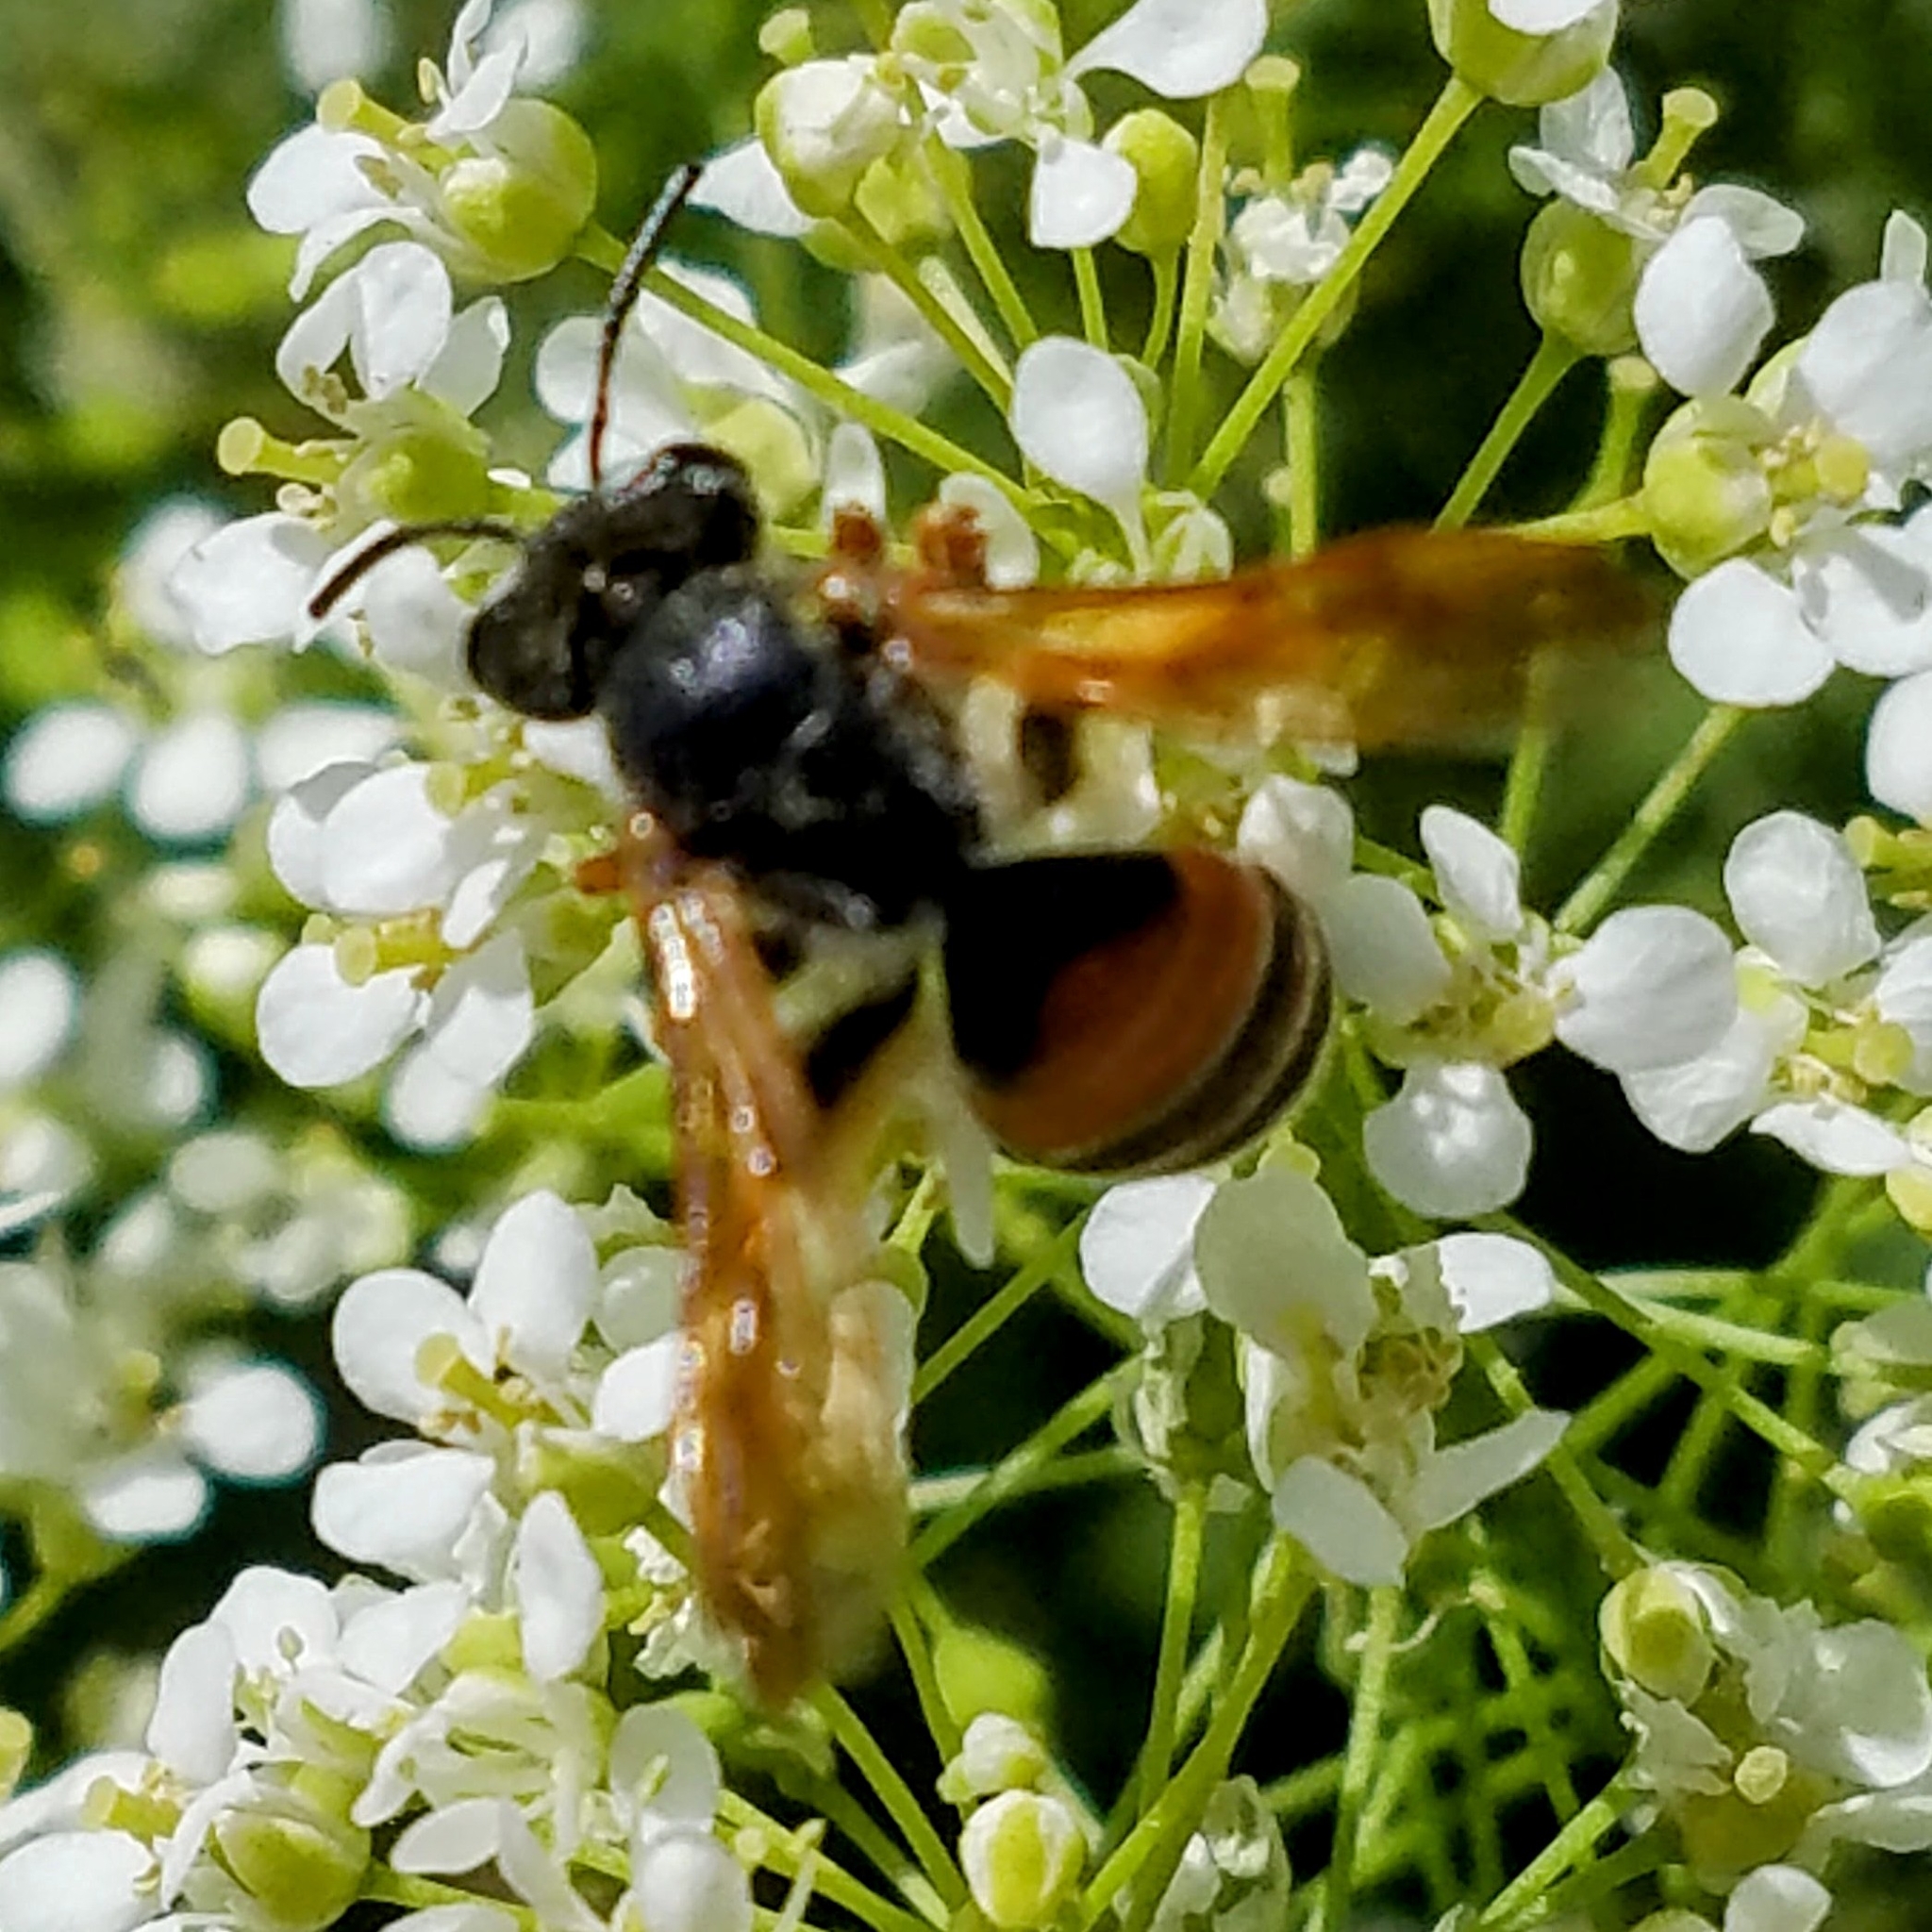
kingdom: Animalia
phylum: Arthropoda
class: Insecta
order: Hymenoptera
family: Andrenidae
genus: Andrena
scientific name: Andrena prunorum
